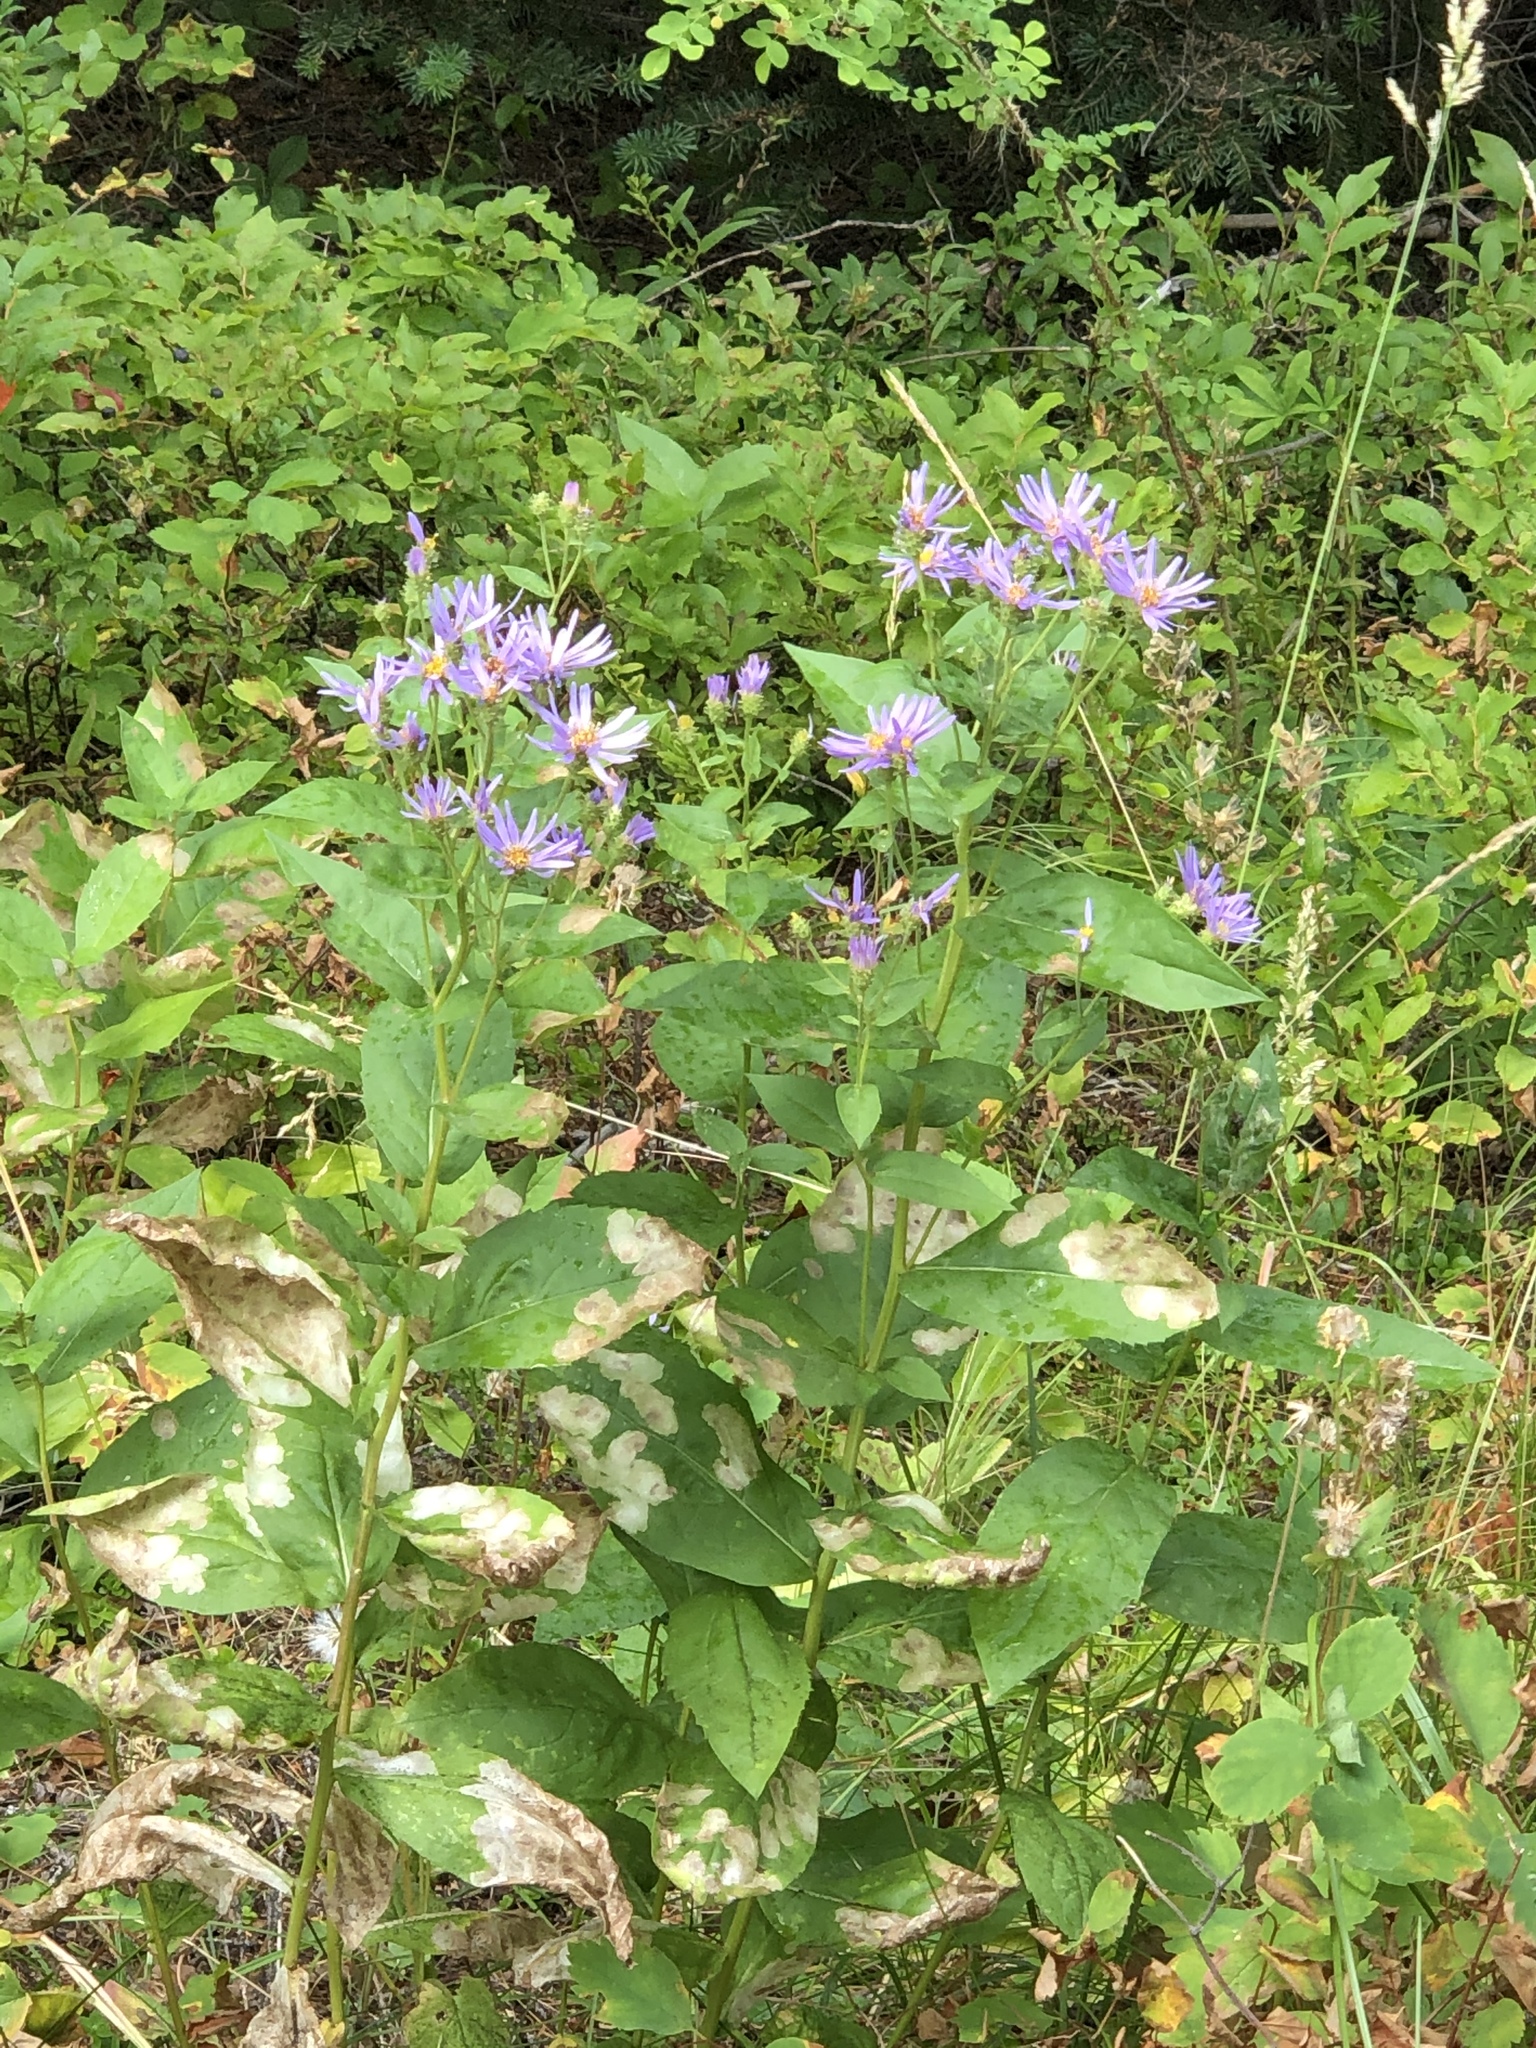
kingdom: Plantae
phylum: Tracheophyta
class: Magnoliopsida
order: Asterales
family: Asteraceae
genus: Eurybia
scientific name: Eurybia conspicua
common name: Showy aster
